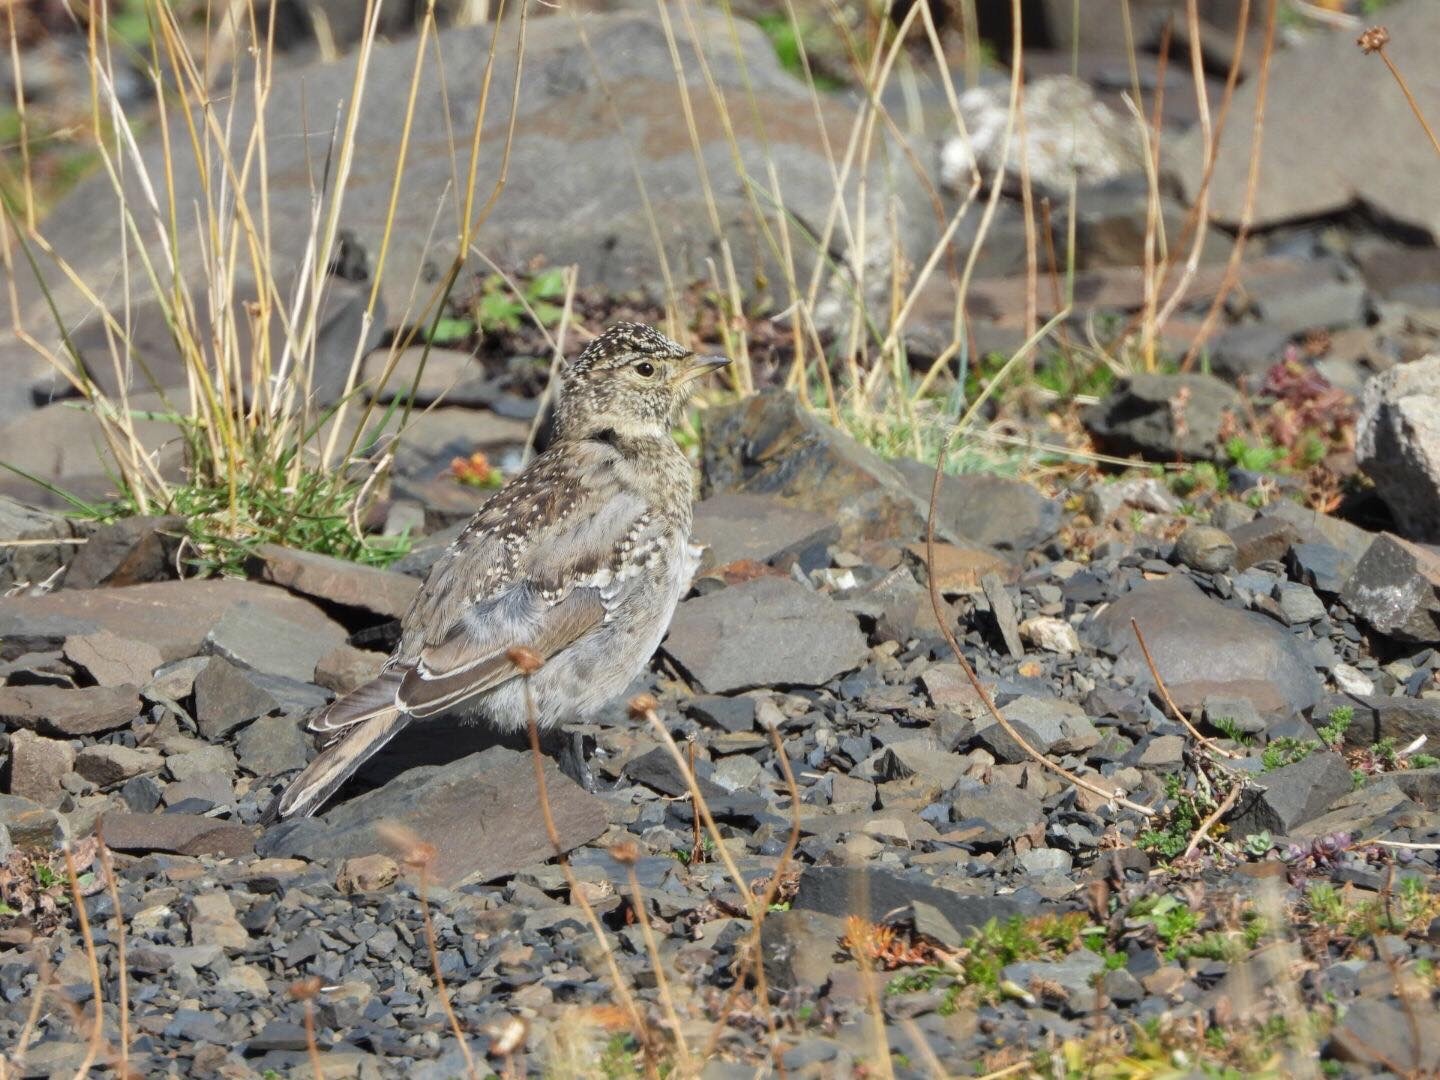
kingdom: Animalia
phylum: Chordata
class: Aves
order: Passeriformes
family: Alaudidae
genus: Eremophila
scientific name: Eremophila alpestris
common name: Horned lark
